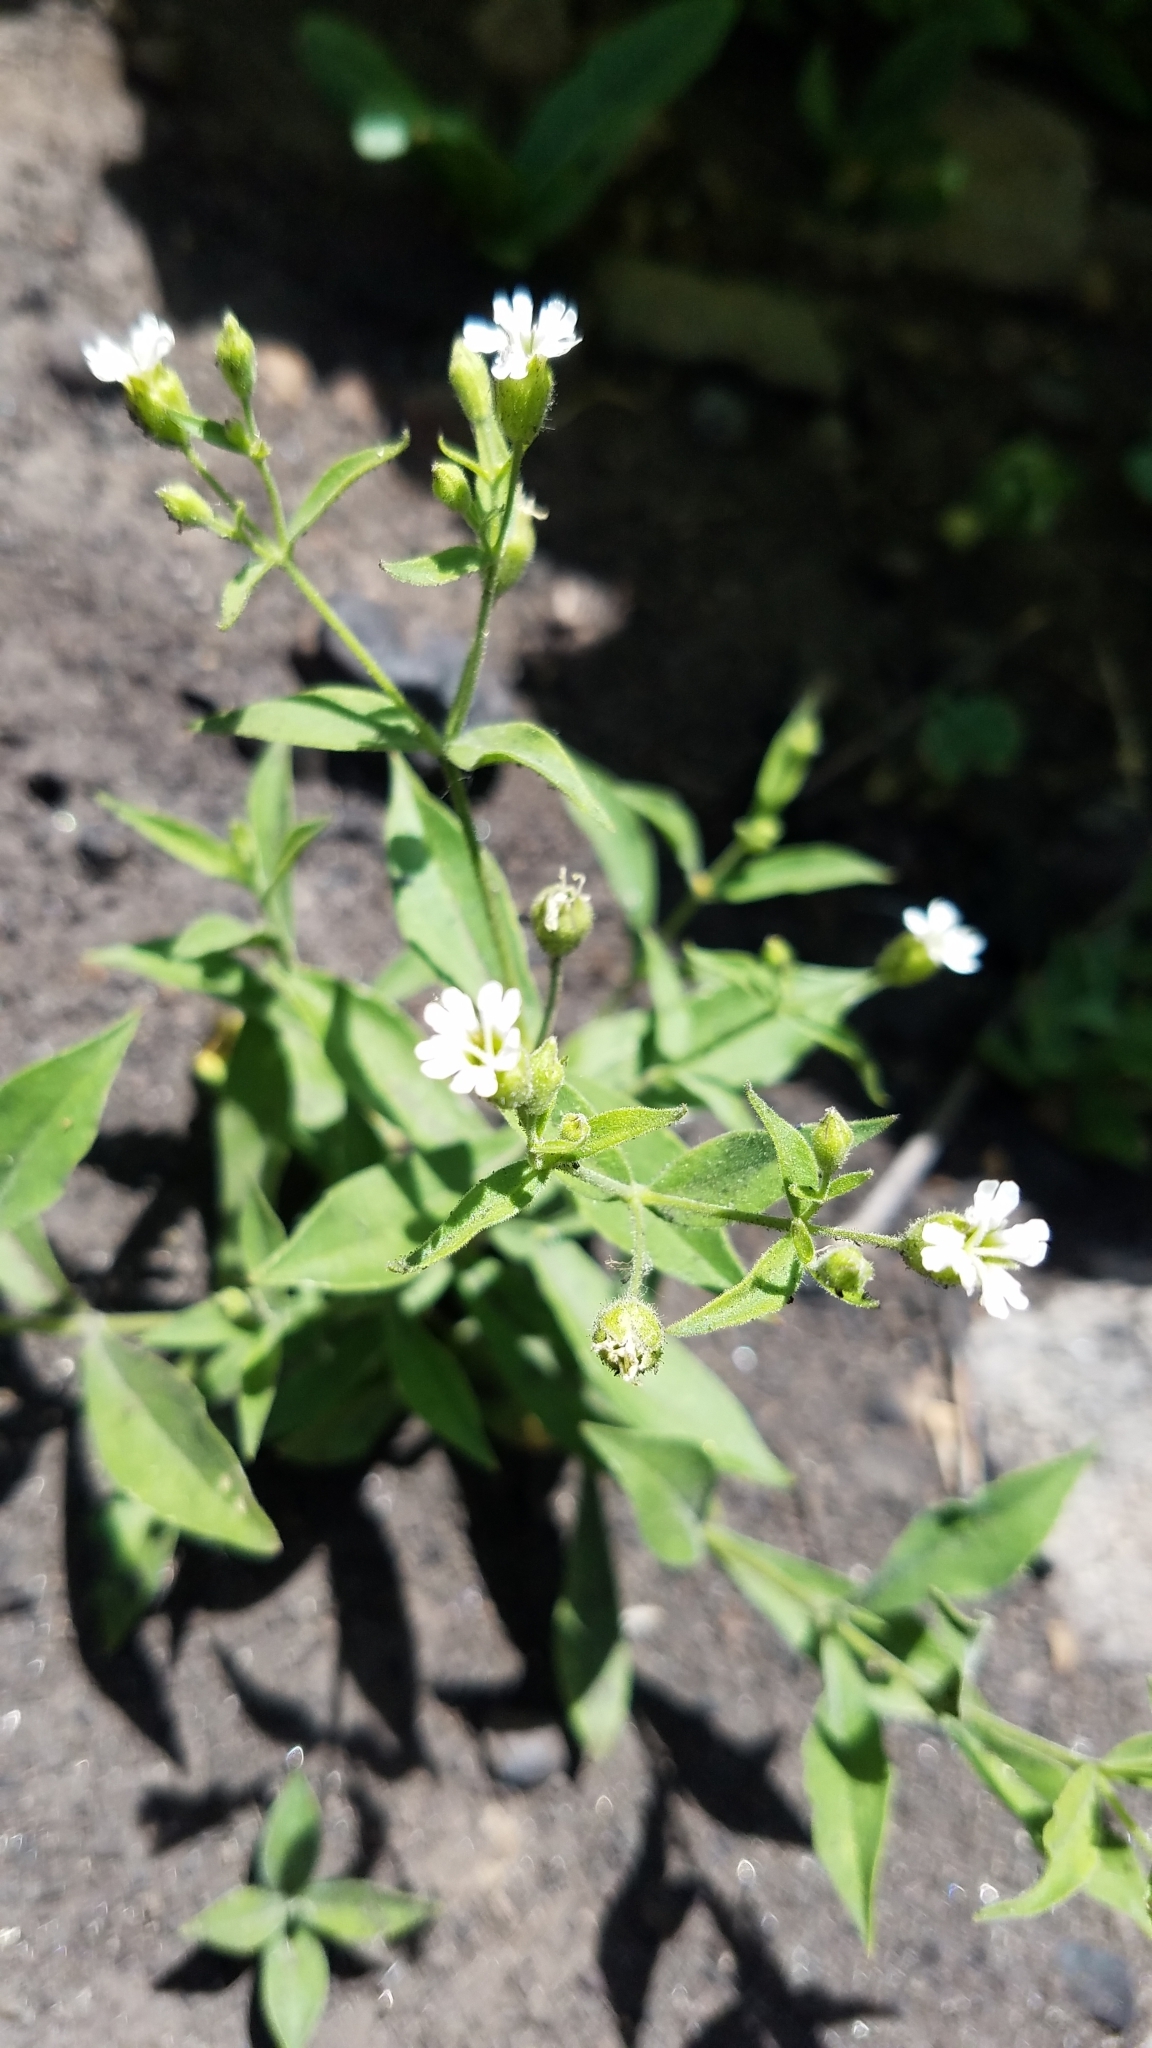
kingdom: Plantae
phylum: Tracheophyta
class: Magnoliopsida
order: Caryophyllales
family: Caryophyllaceae
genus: Silene
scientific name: Silene menziesii
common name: Menzies's catchfly
